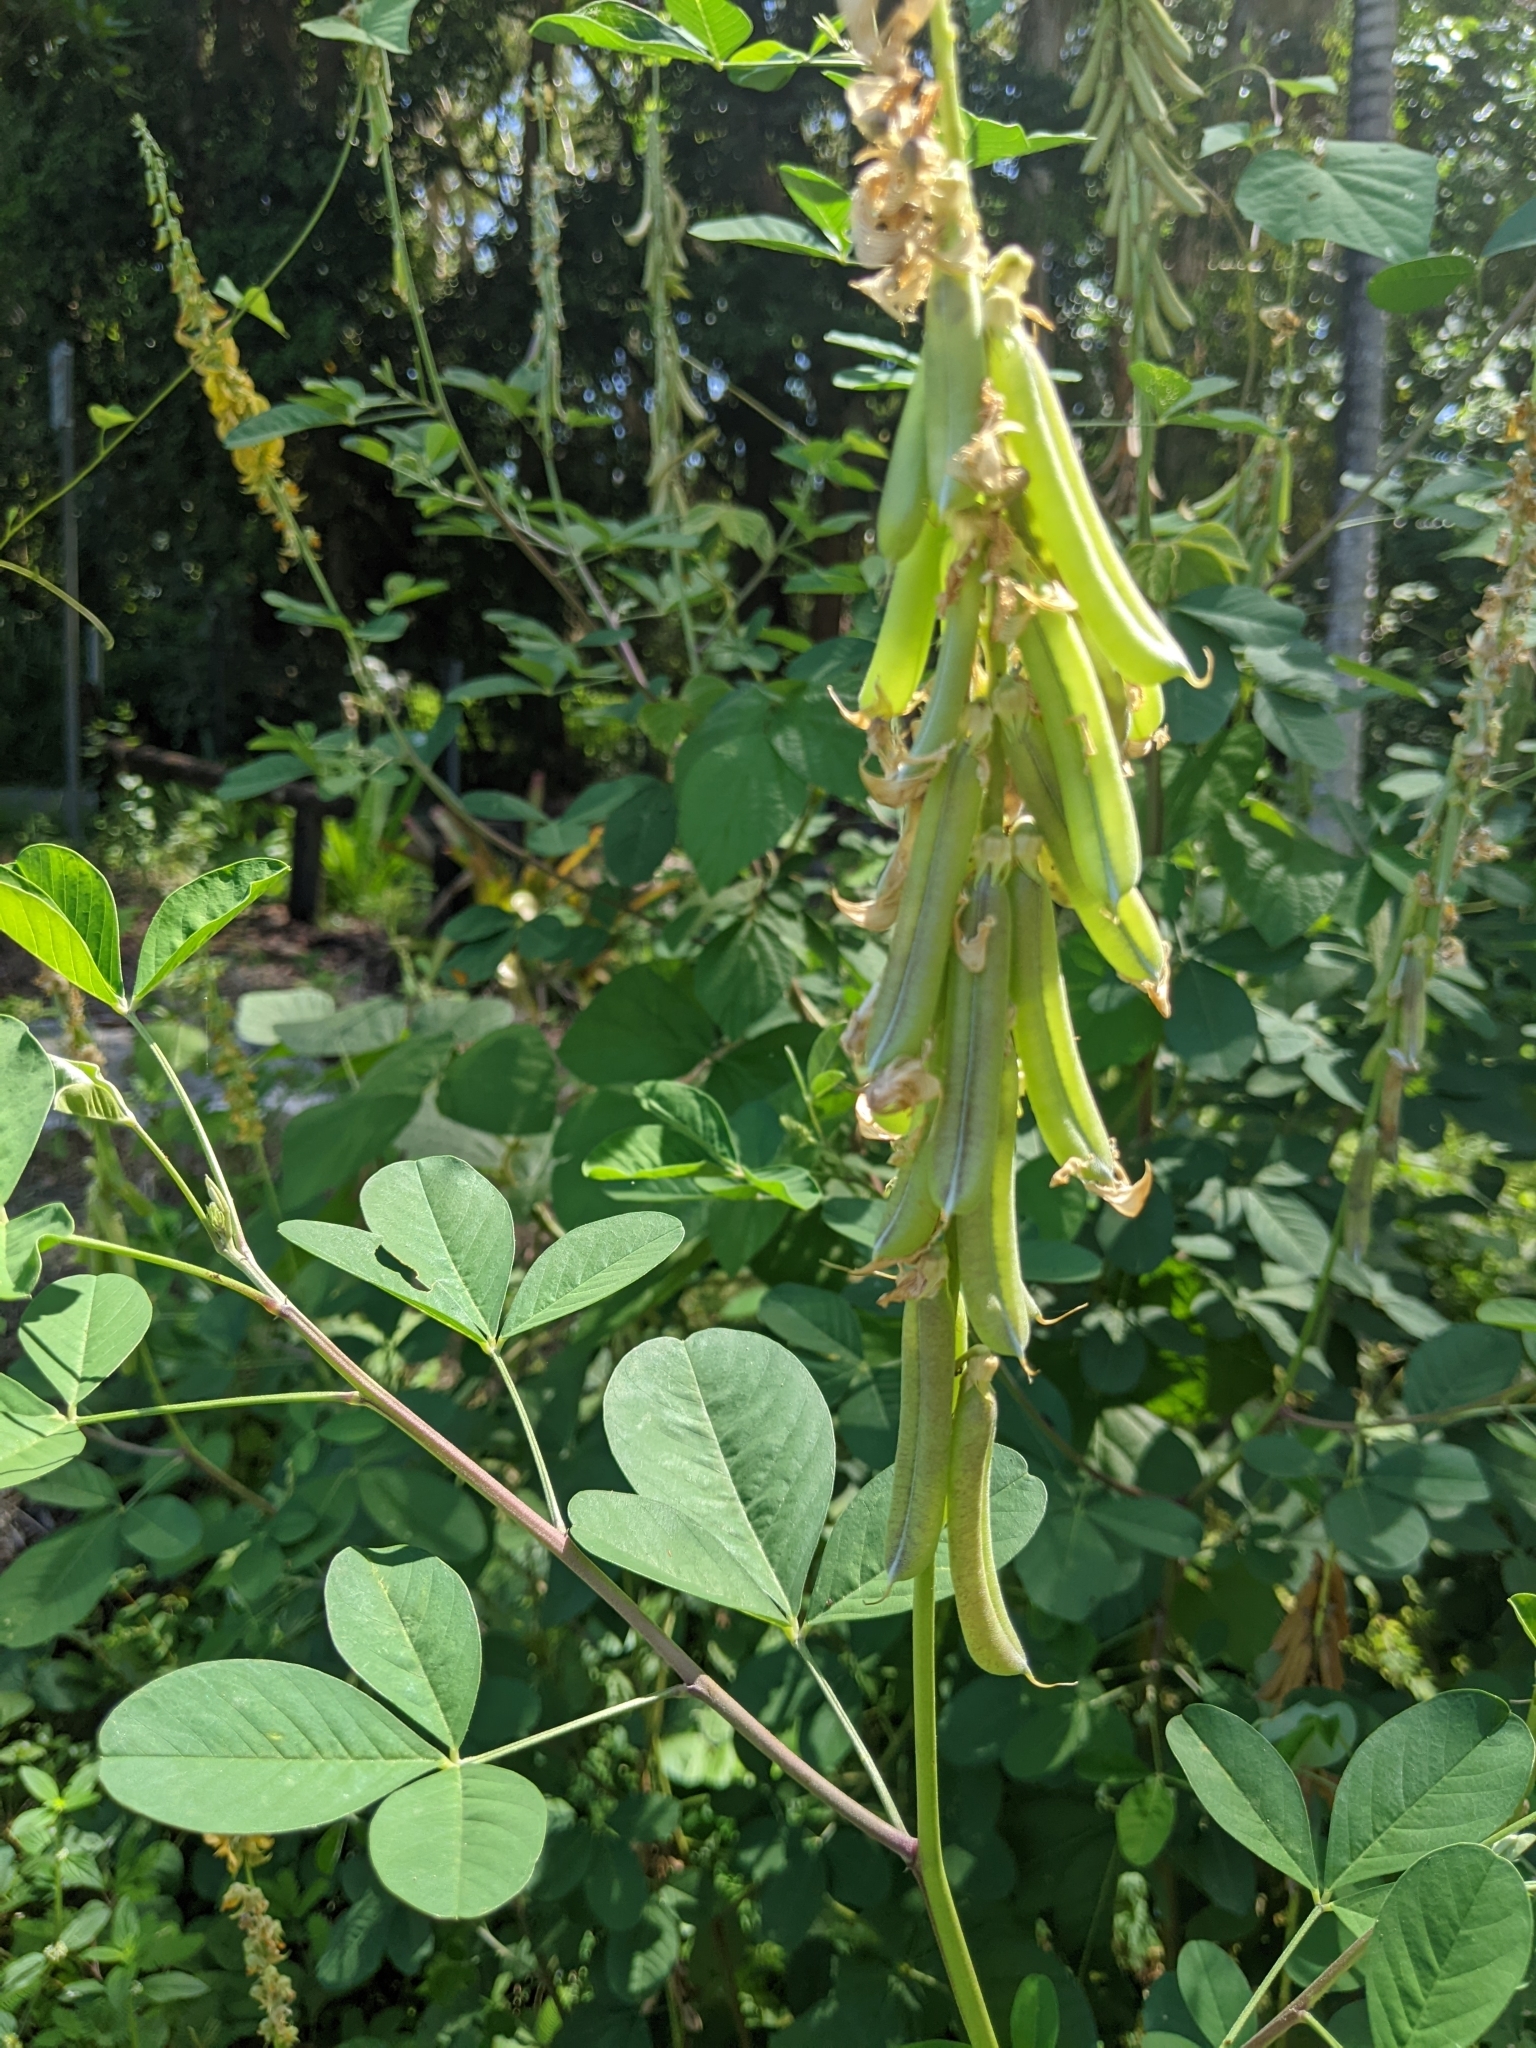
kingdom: Plantae
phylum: Tracheophyta
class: Magnoliopsida
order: Fabales
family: Fabaceae
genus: Crotalaria
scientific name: Crotalaria pallida
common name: Smooth rattlebox
